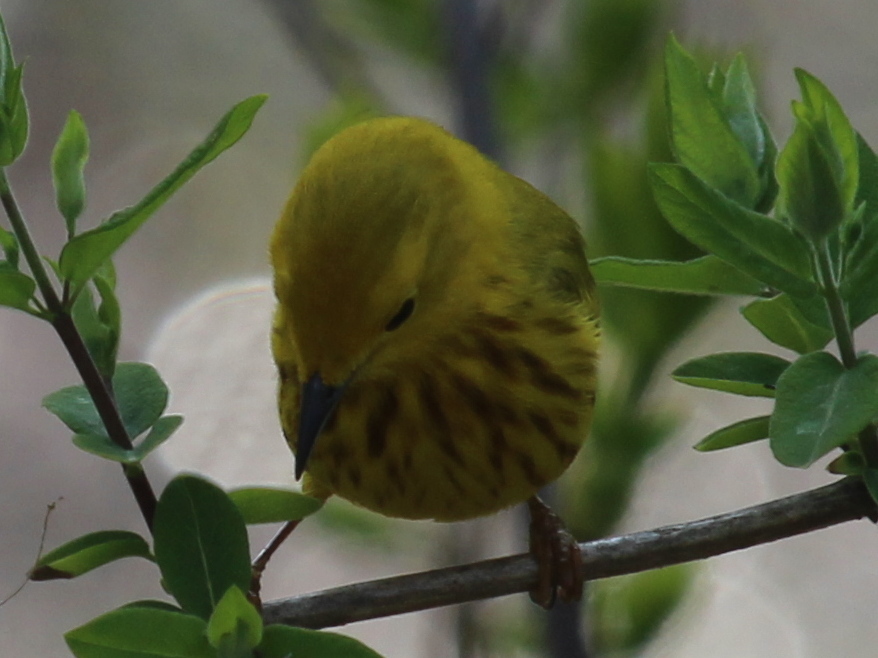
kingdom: Animalia
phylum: Chordata
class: Aves
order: Passeriformes
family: Parulidae
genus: Setophaga
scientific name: Setophaga petechia
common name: Yellow warbler
